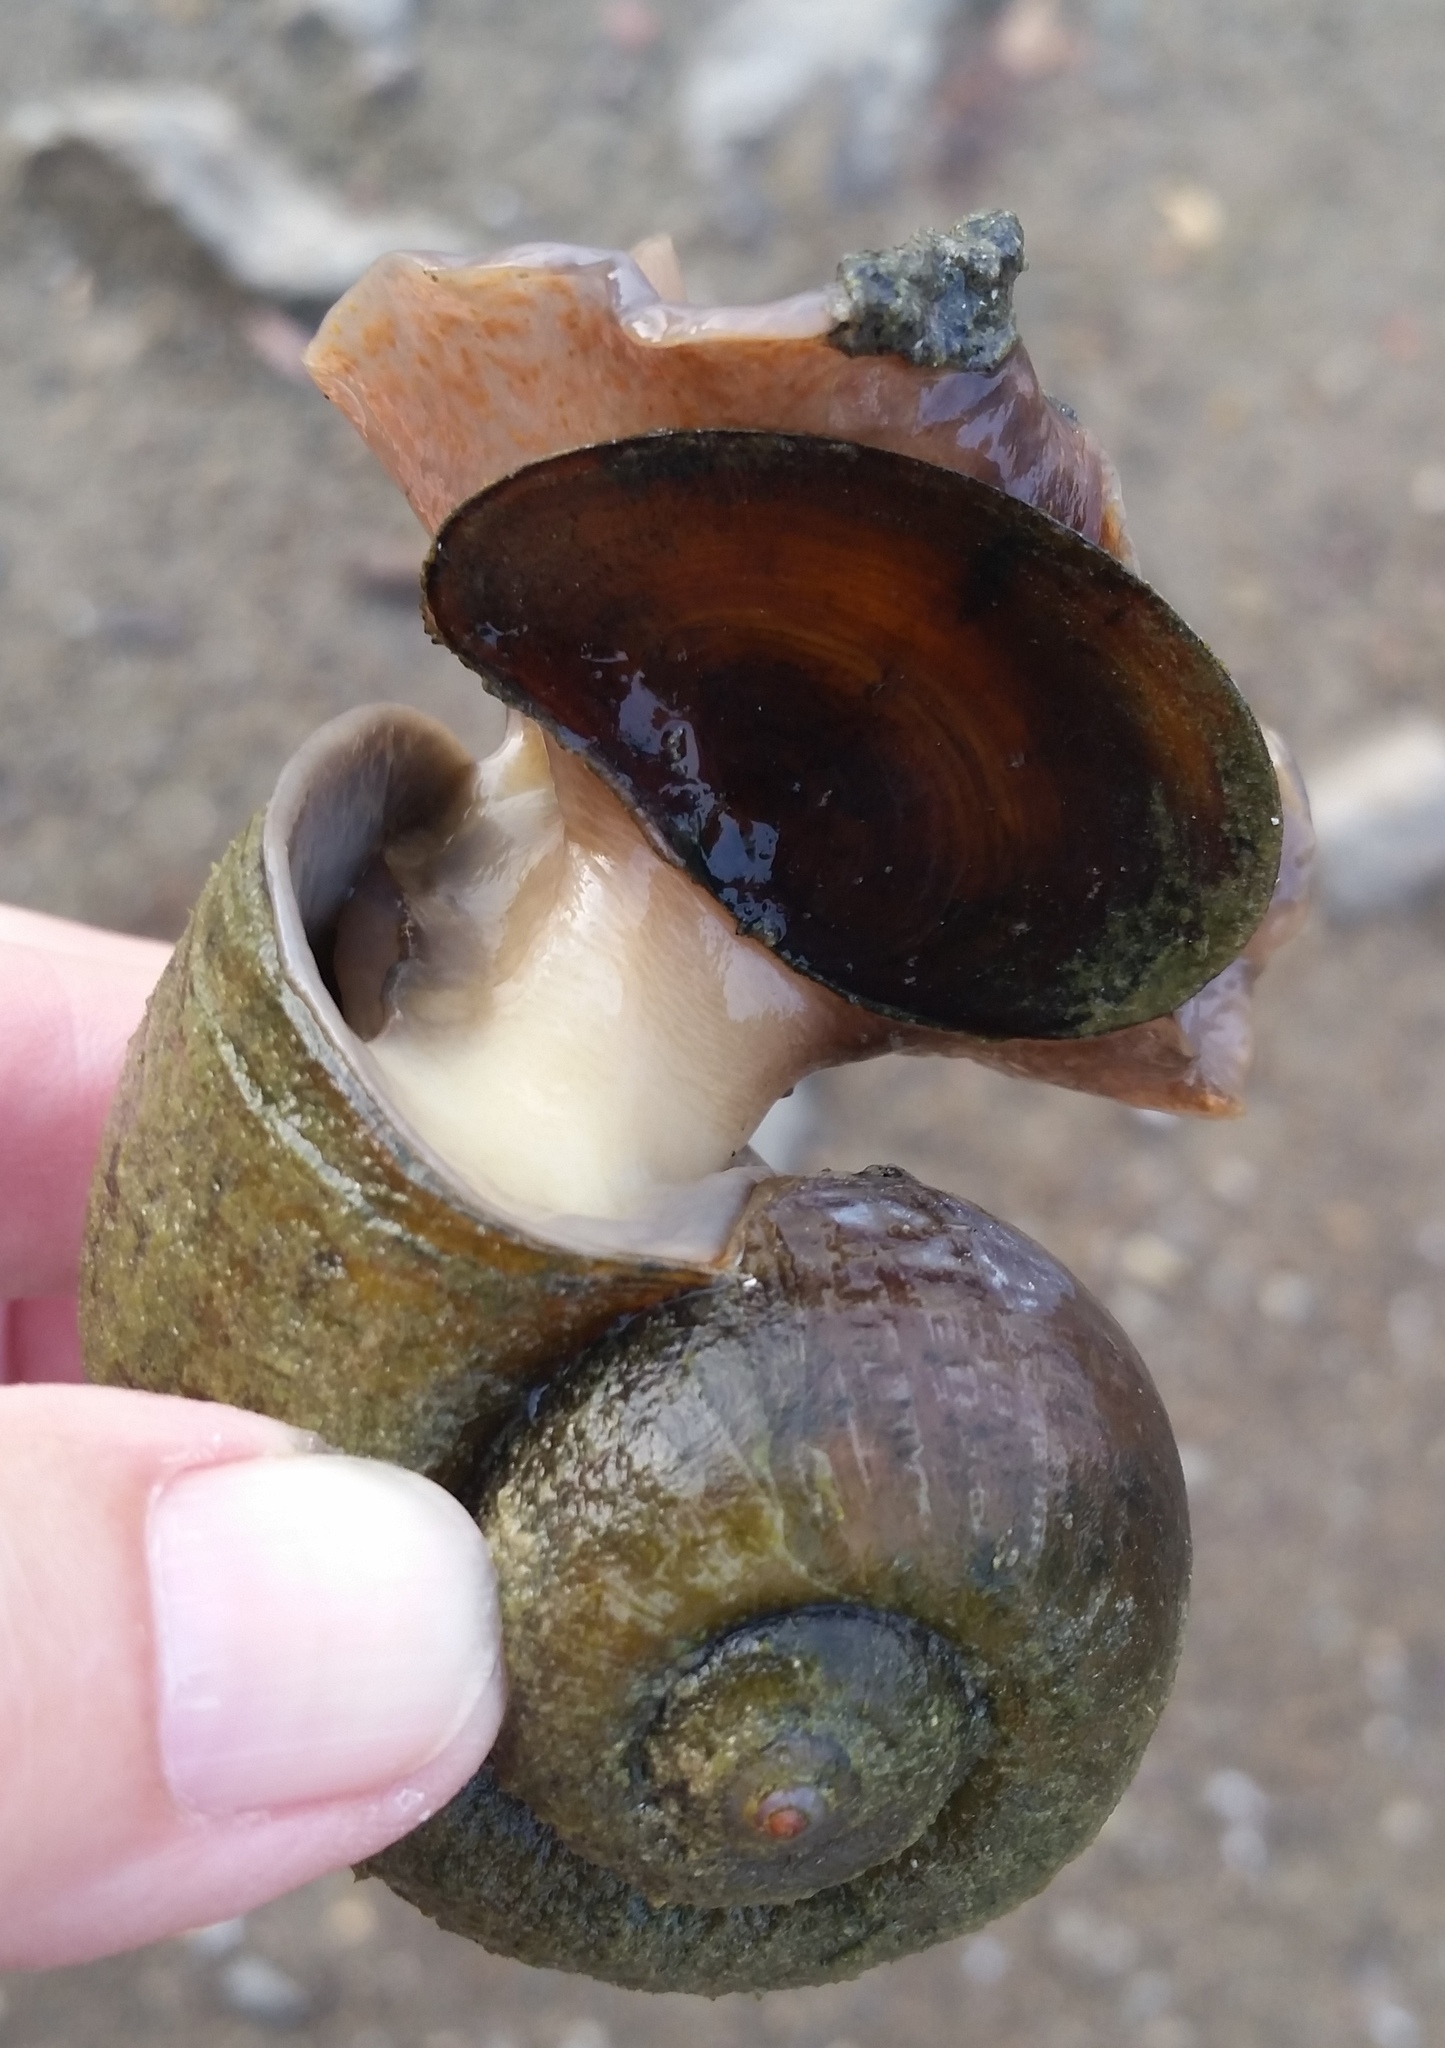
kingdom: Animalia
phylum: Mollusca
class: Gastropoda
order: Architaenioglossa
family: Ampullariidae
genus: Pomacea
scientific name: Pomacea canaliculata
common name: Channeled applesnail
